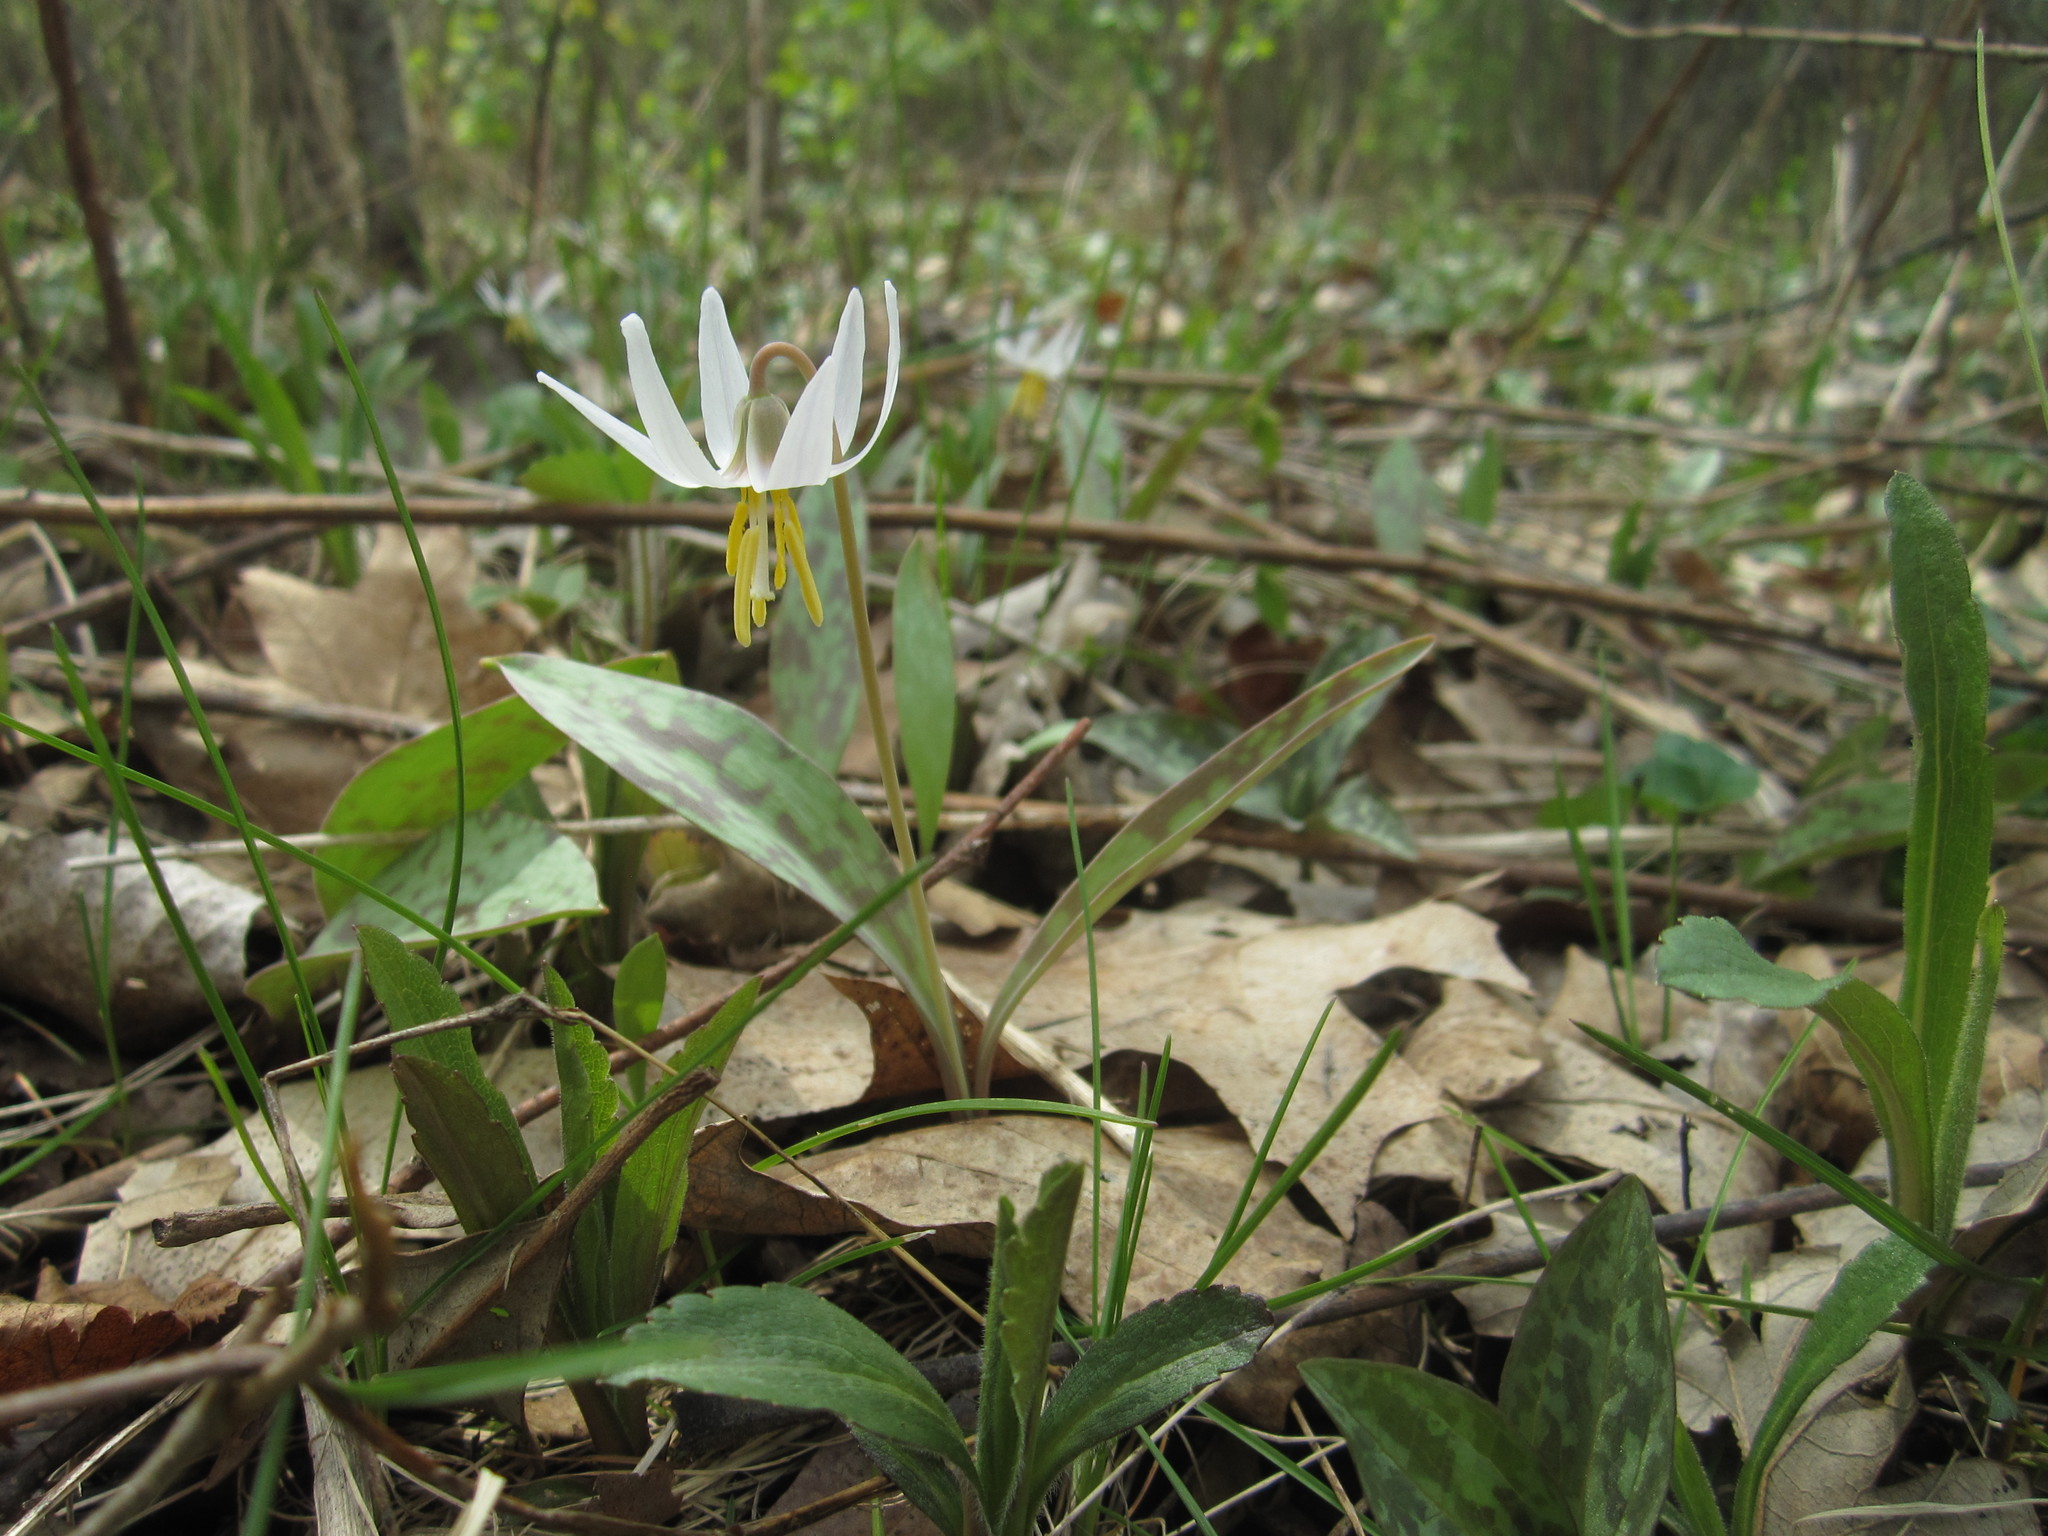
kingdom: Plantae
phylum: Tracheophyta
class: Liliopsida
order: Liliales
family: Liliaceae
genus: Erythronium
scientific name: Erythronium albidum
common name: White trout-lily
